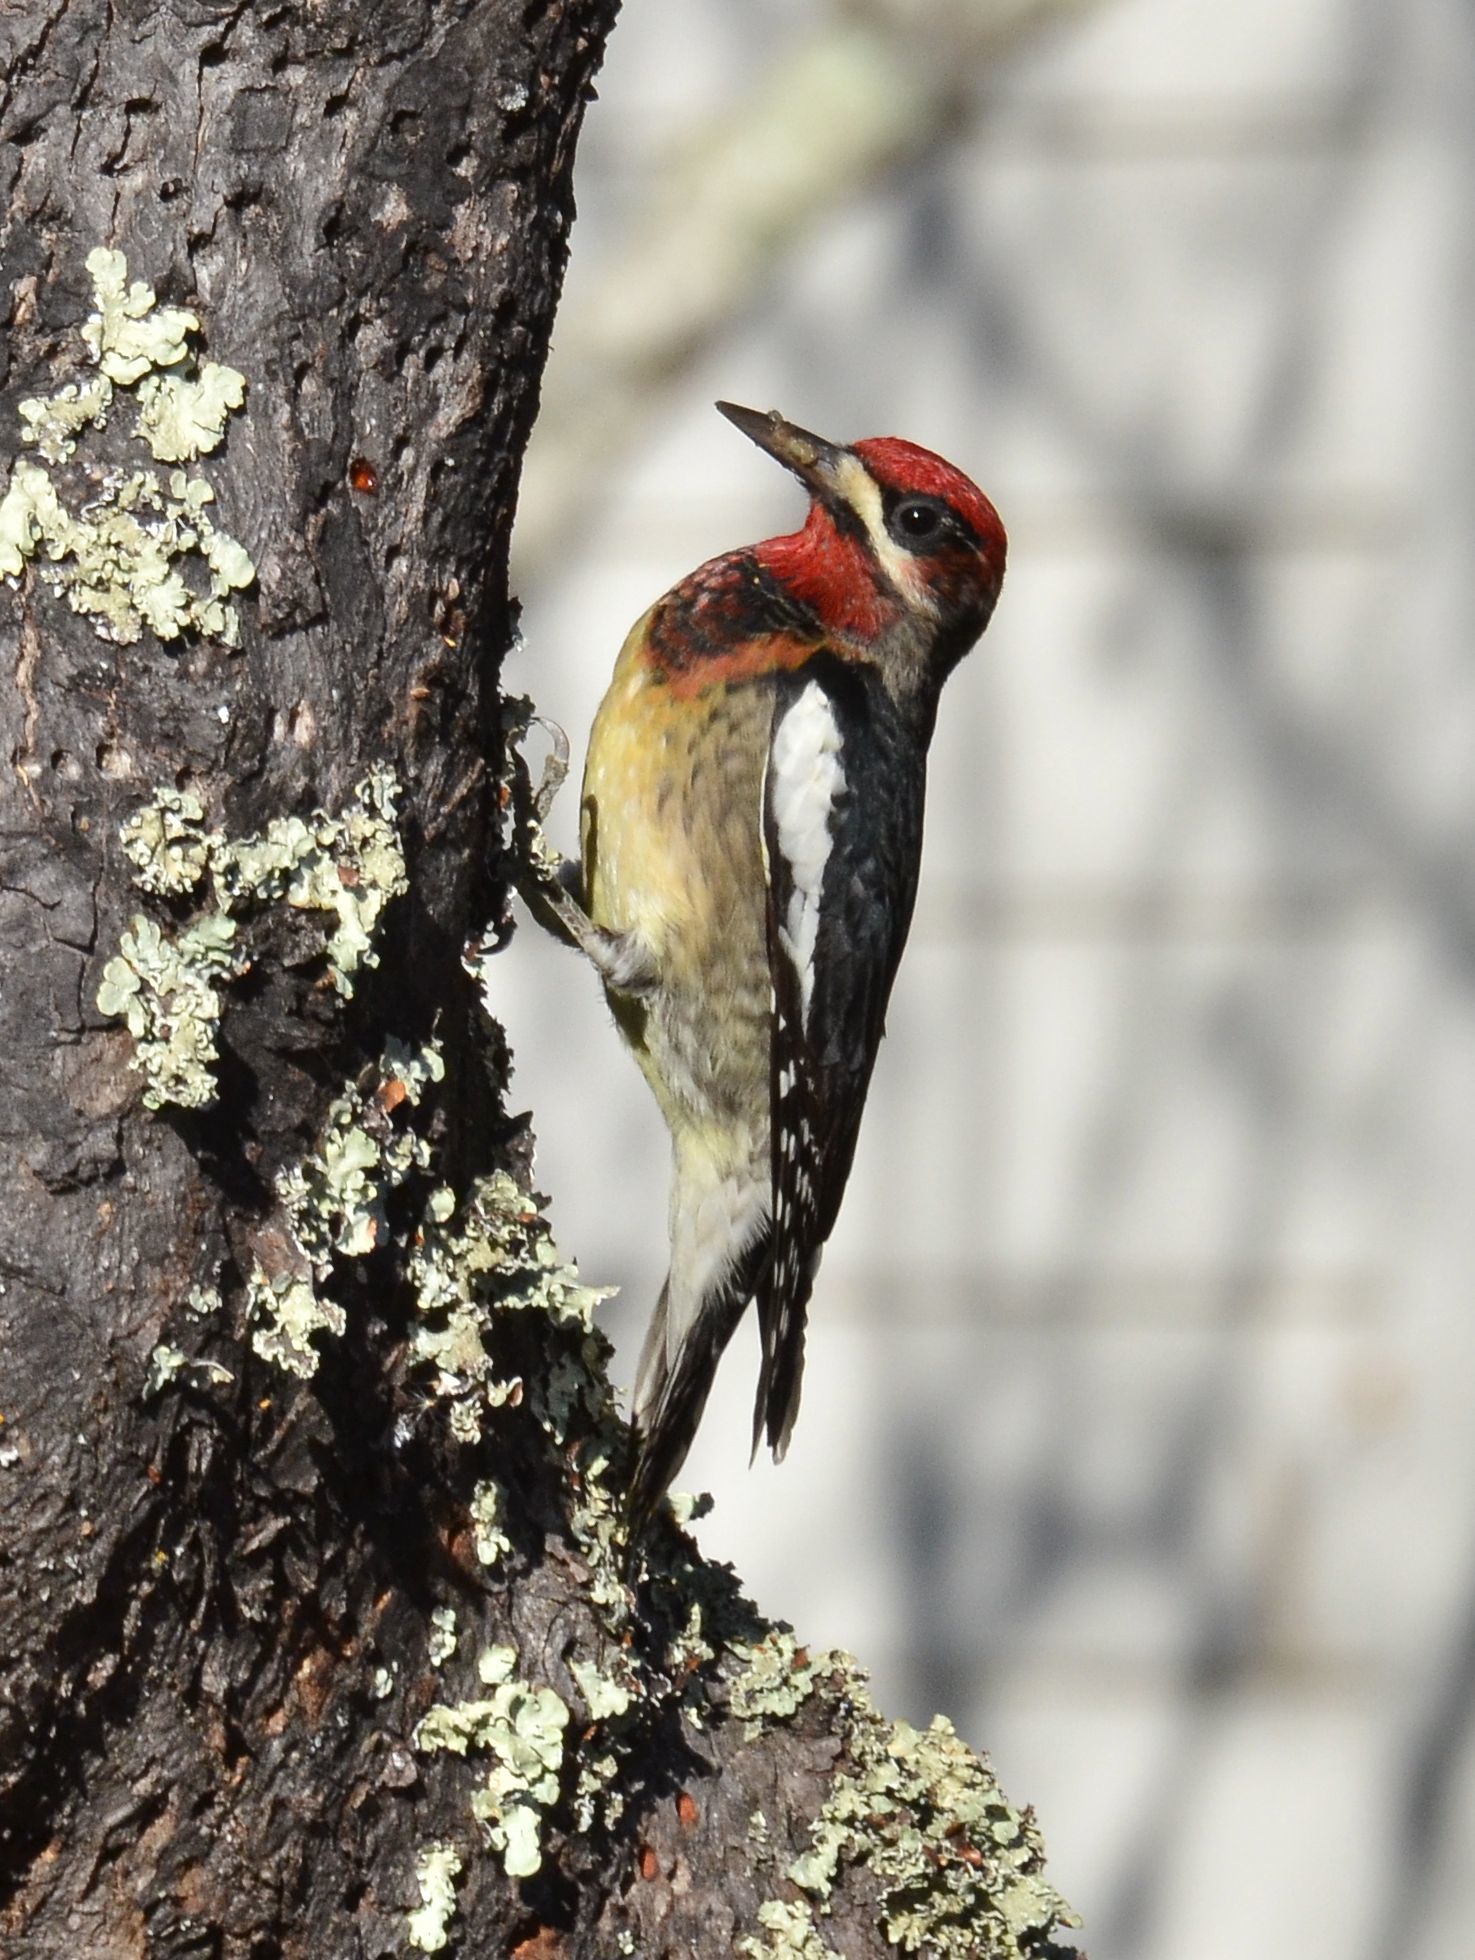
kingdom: Animalia
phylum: Chordata
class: Aves
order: Piciformes
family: Picidae
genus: Sphyrapicus
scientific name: Sphyrapicus ruber
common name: Red-breasted sapsucker
